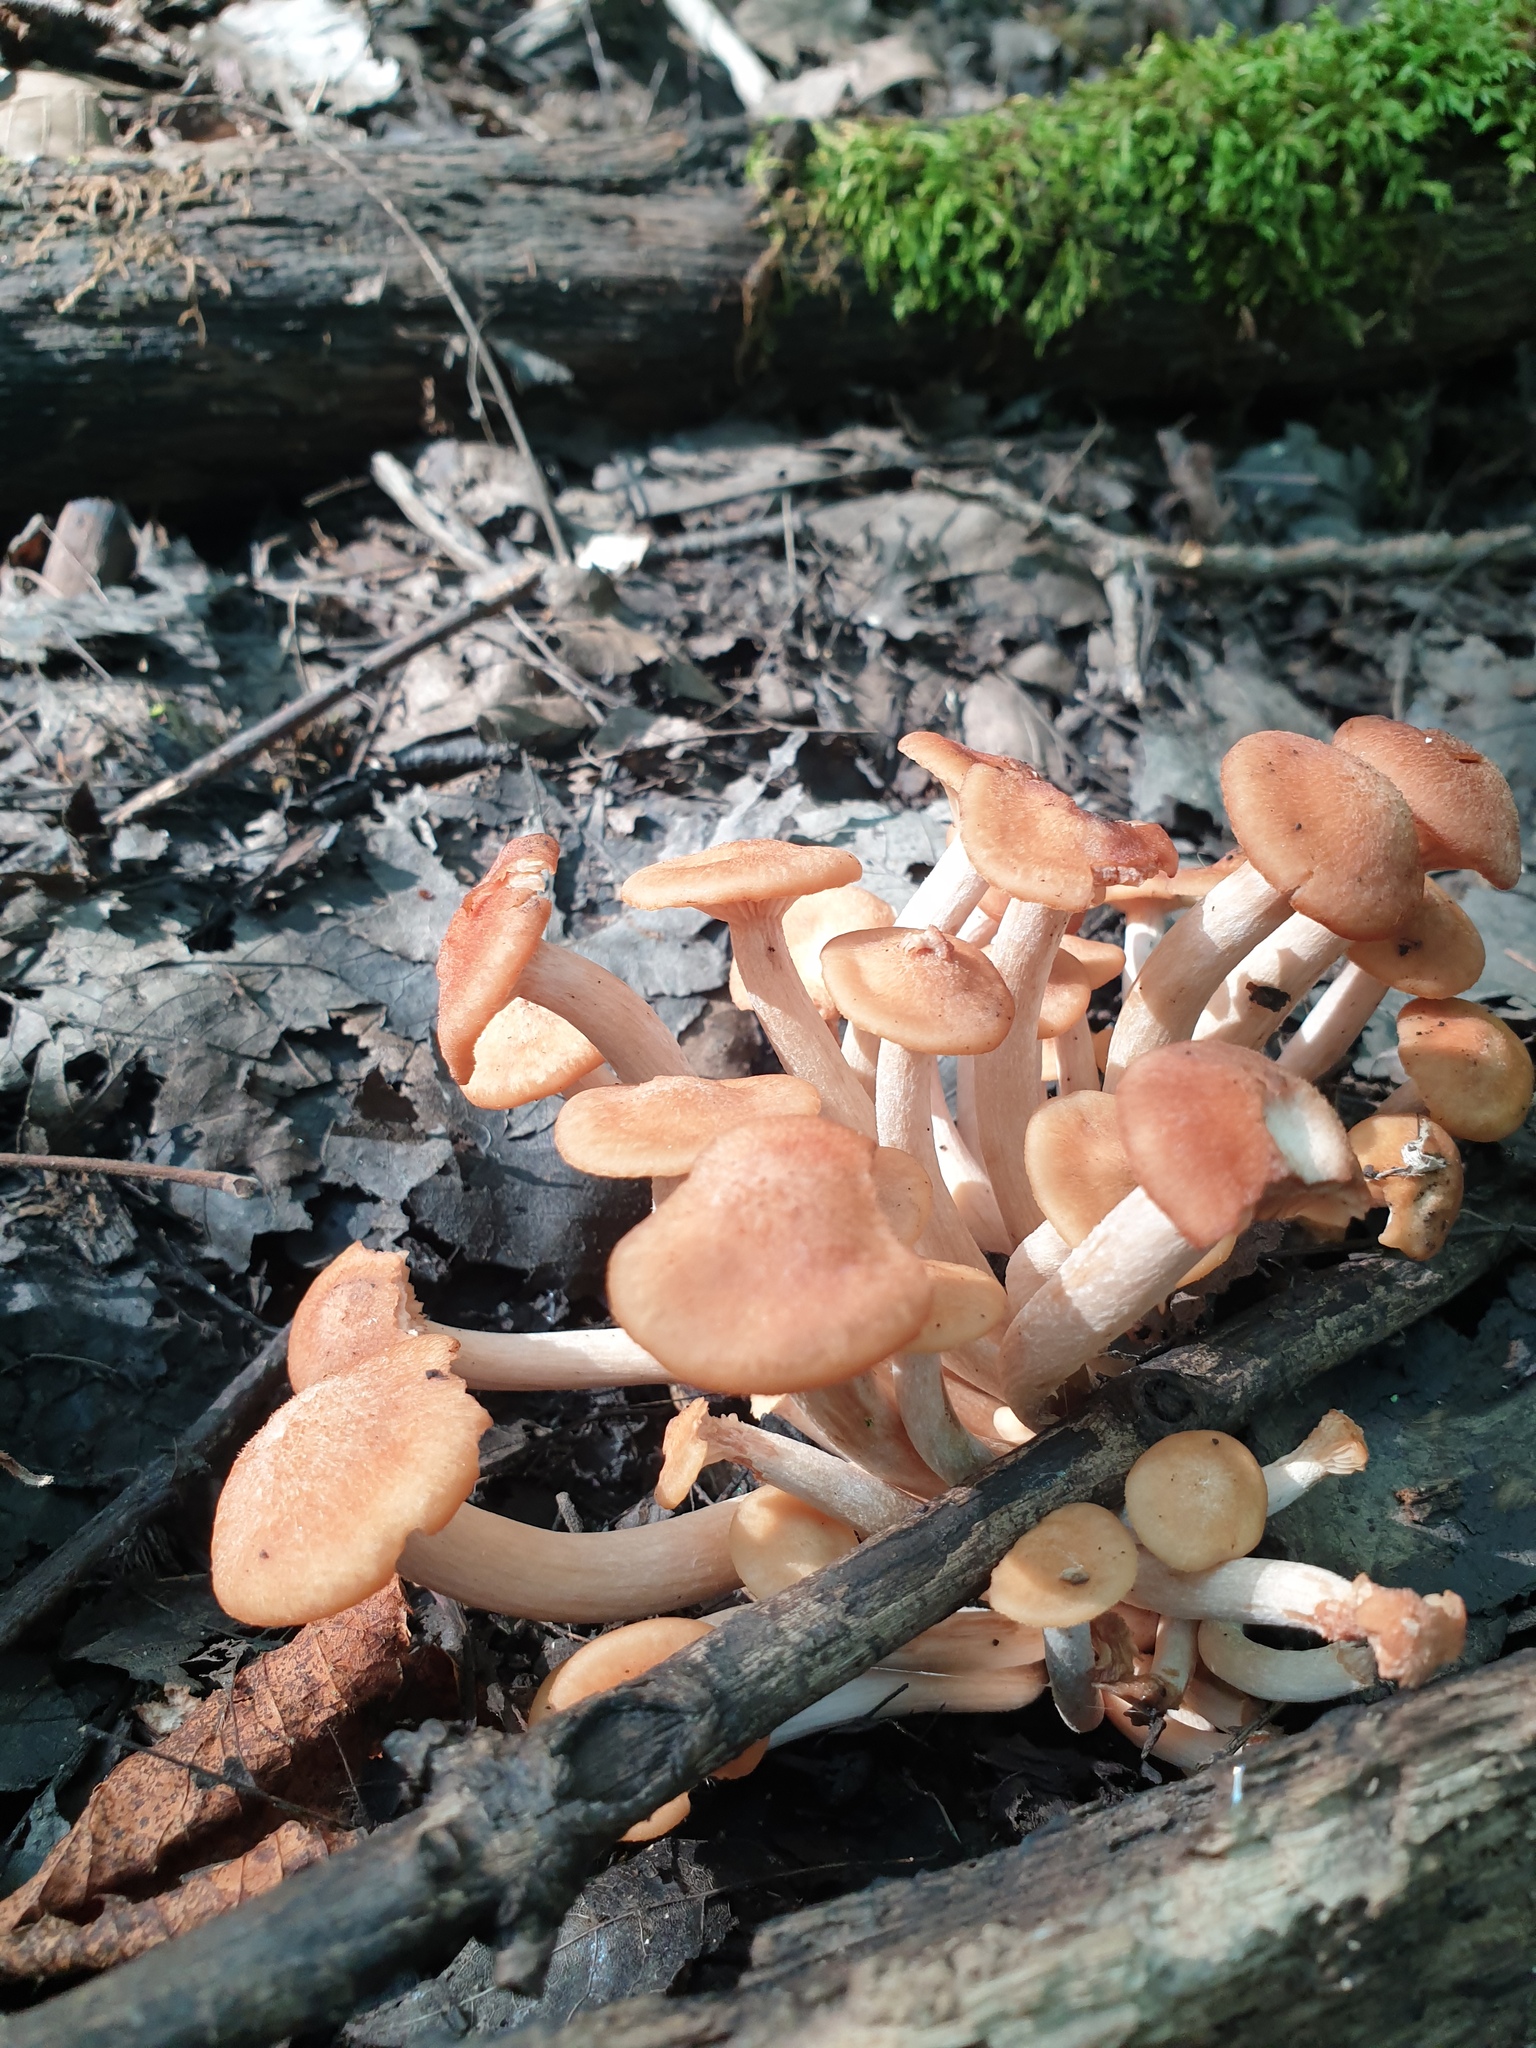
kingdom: Fungi
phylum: Basidiomycota
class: Agaricomycetes
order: Agaricales
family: Physalacriaceae
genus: Desarmillaria
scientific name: Desarmillaria caespitosa
